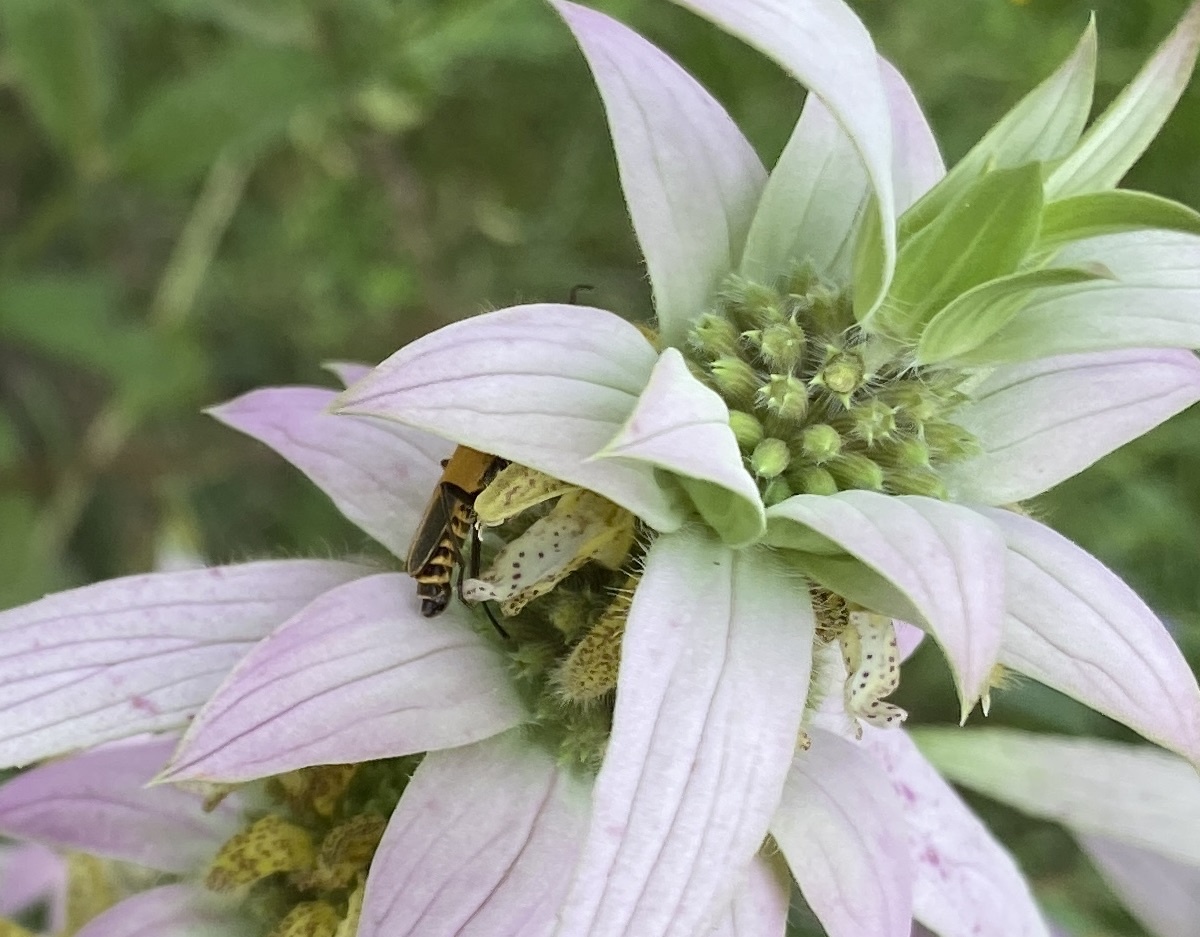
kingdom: Animalia
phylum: Arthropoda
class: Insecta
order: Coleoptera
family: Cantharidae
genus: Chauliognathus
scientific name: Chauliognathus pensylvanicus
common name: Goldenrod soldier beetle
